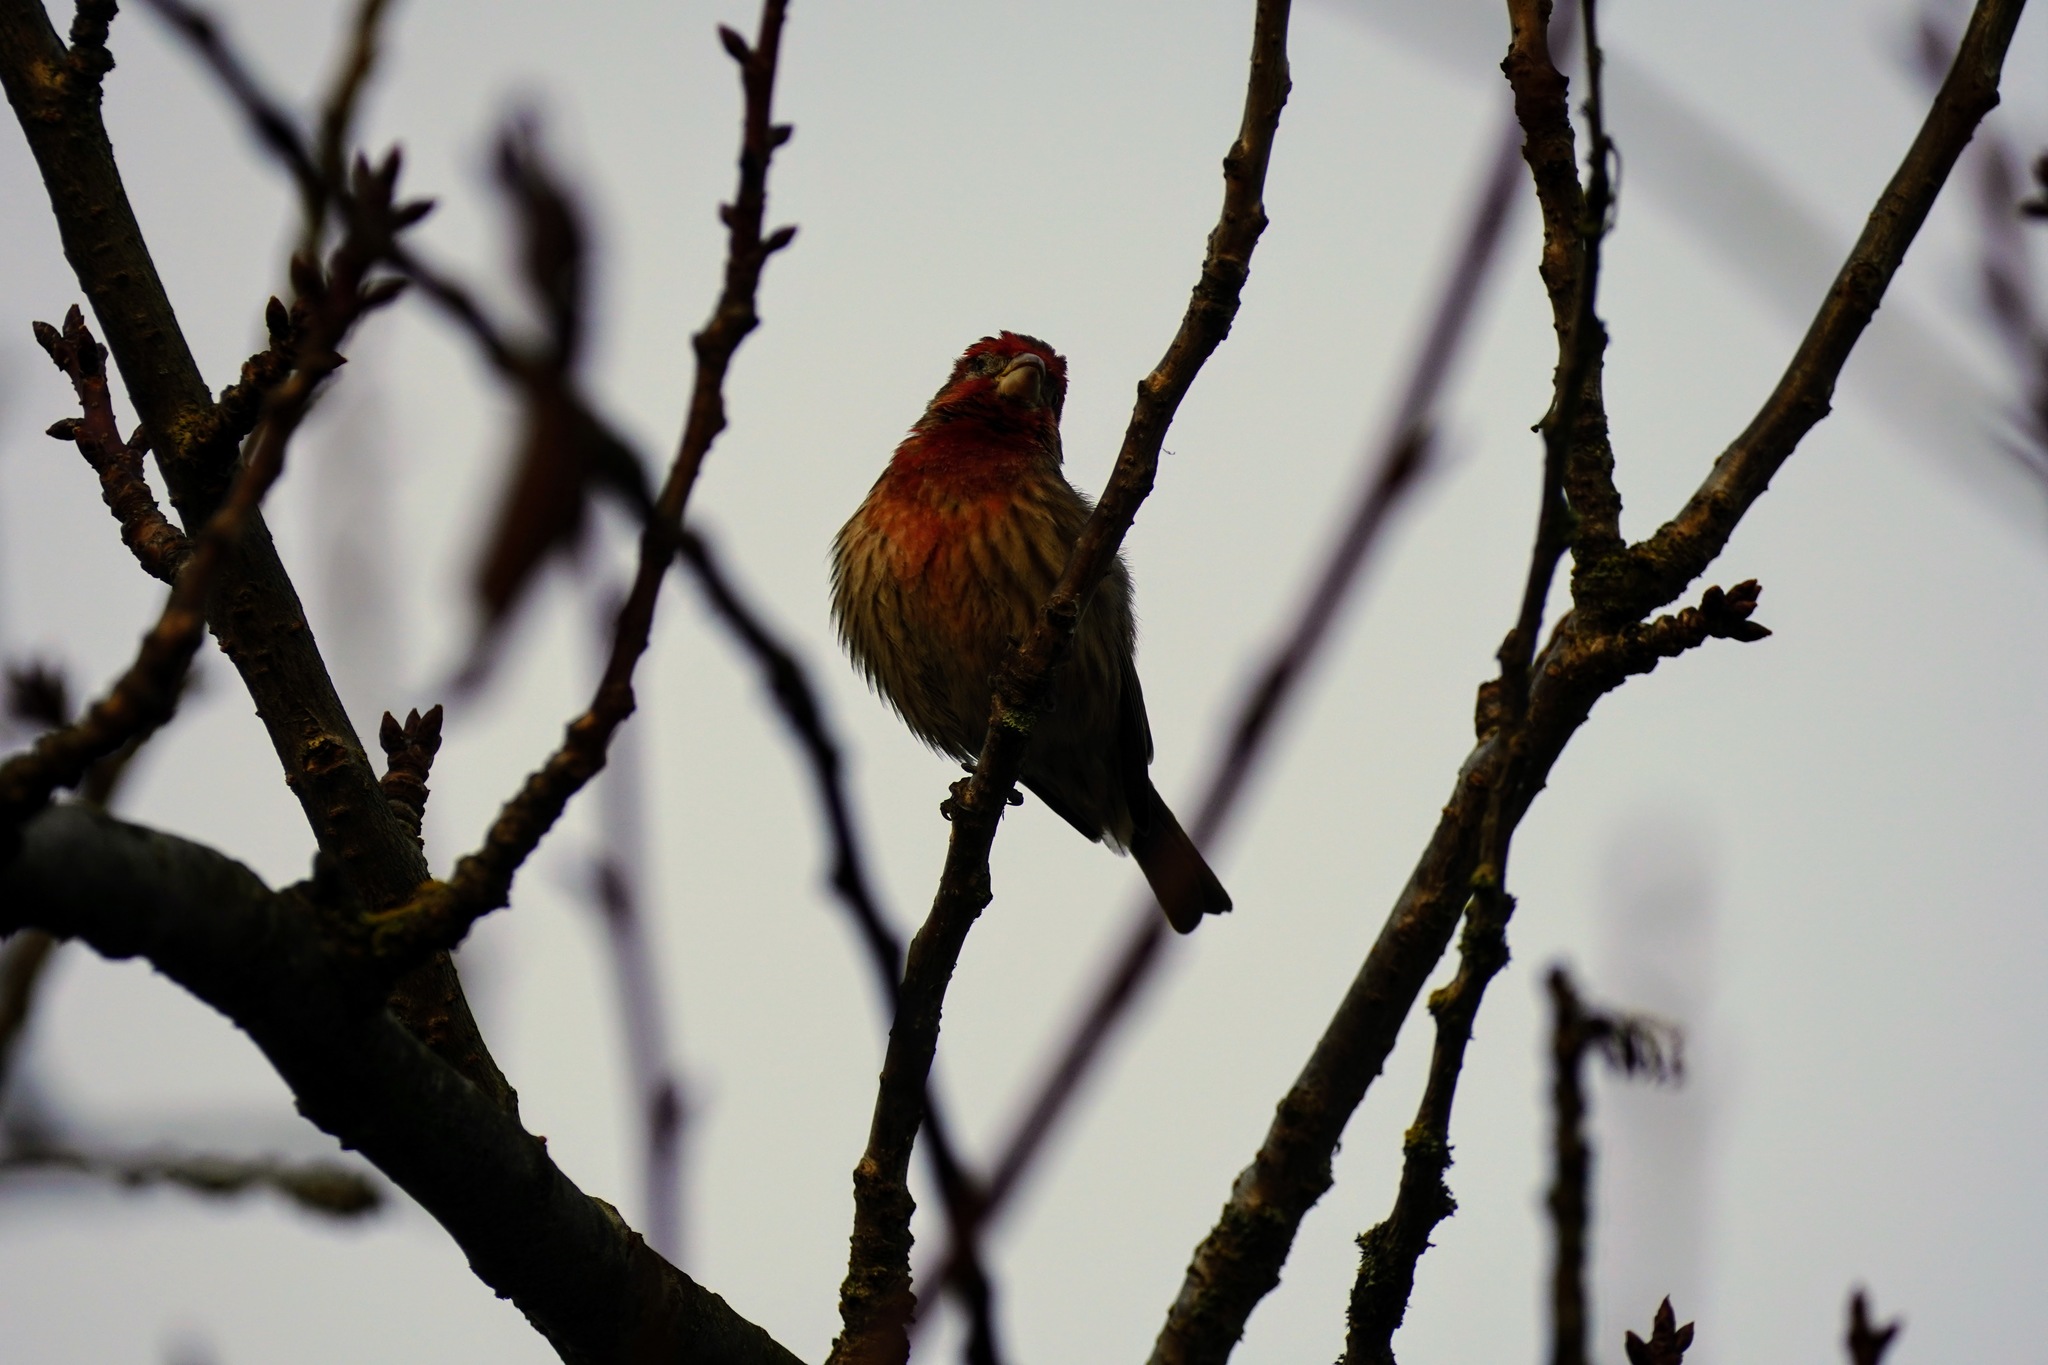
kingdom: Animalia
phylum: Chordata
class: Aves
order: Passeriformes
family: Fringillidae
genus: Haemorhous
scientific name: Haemorhous mexicanus
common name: House finch
